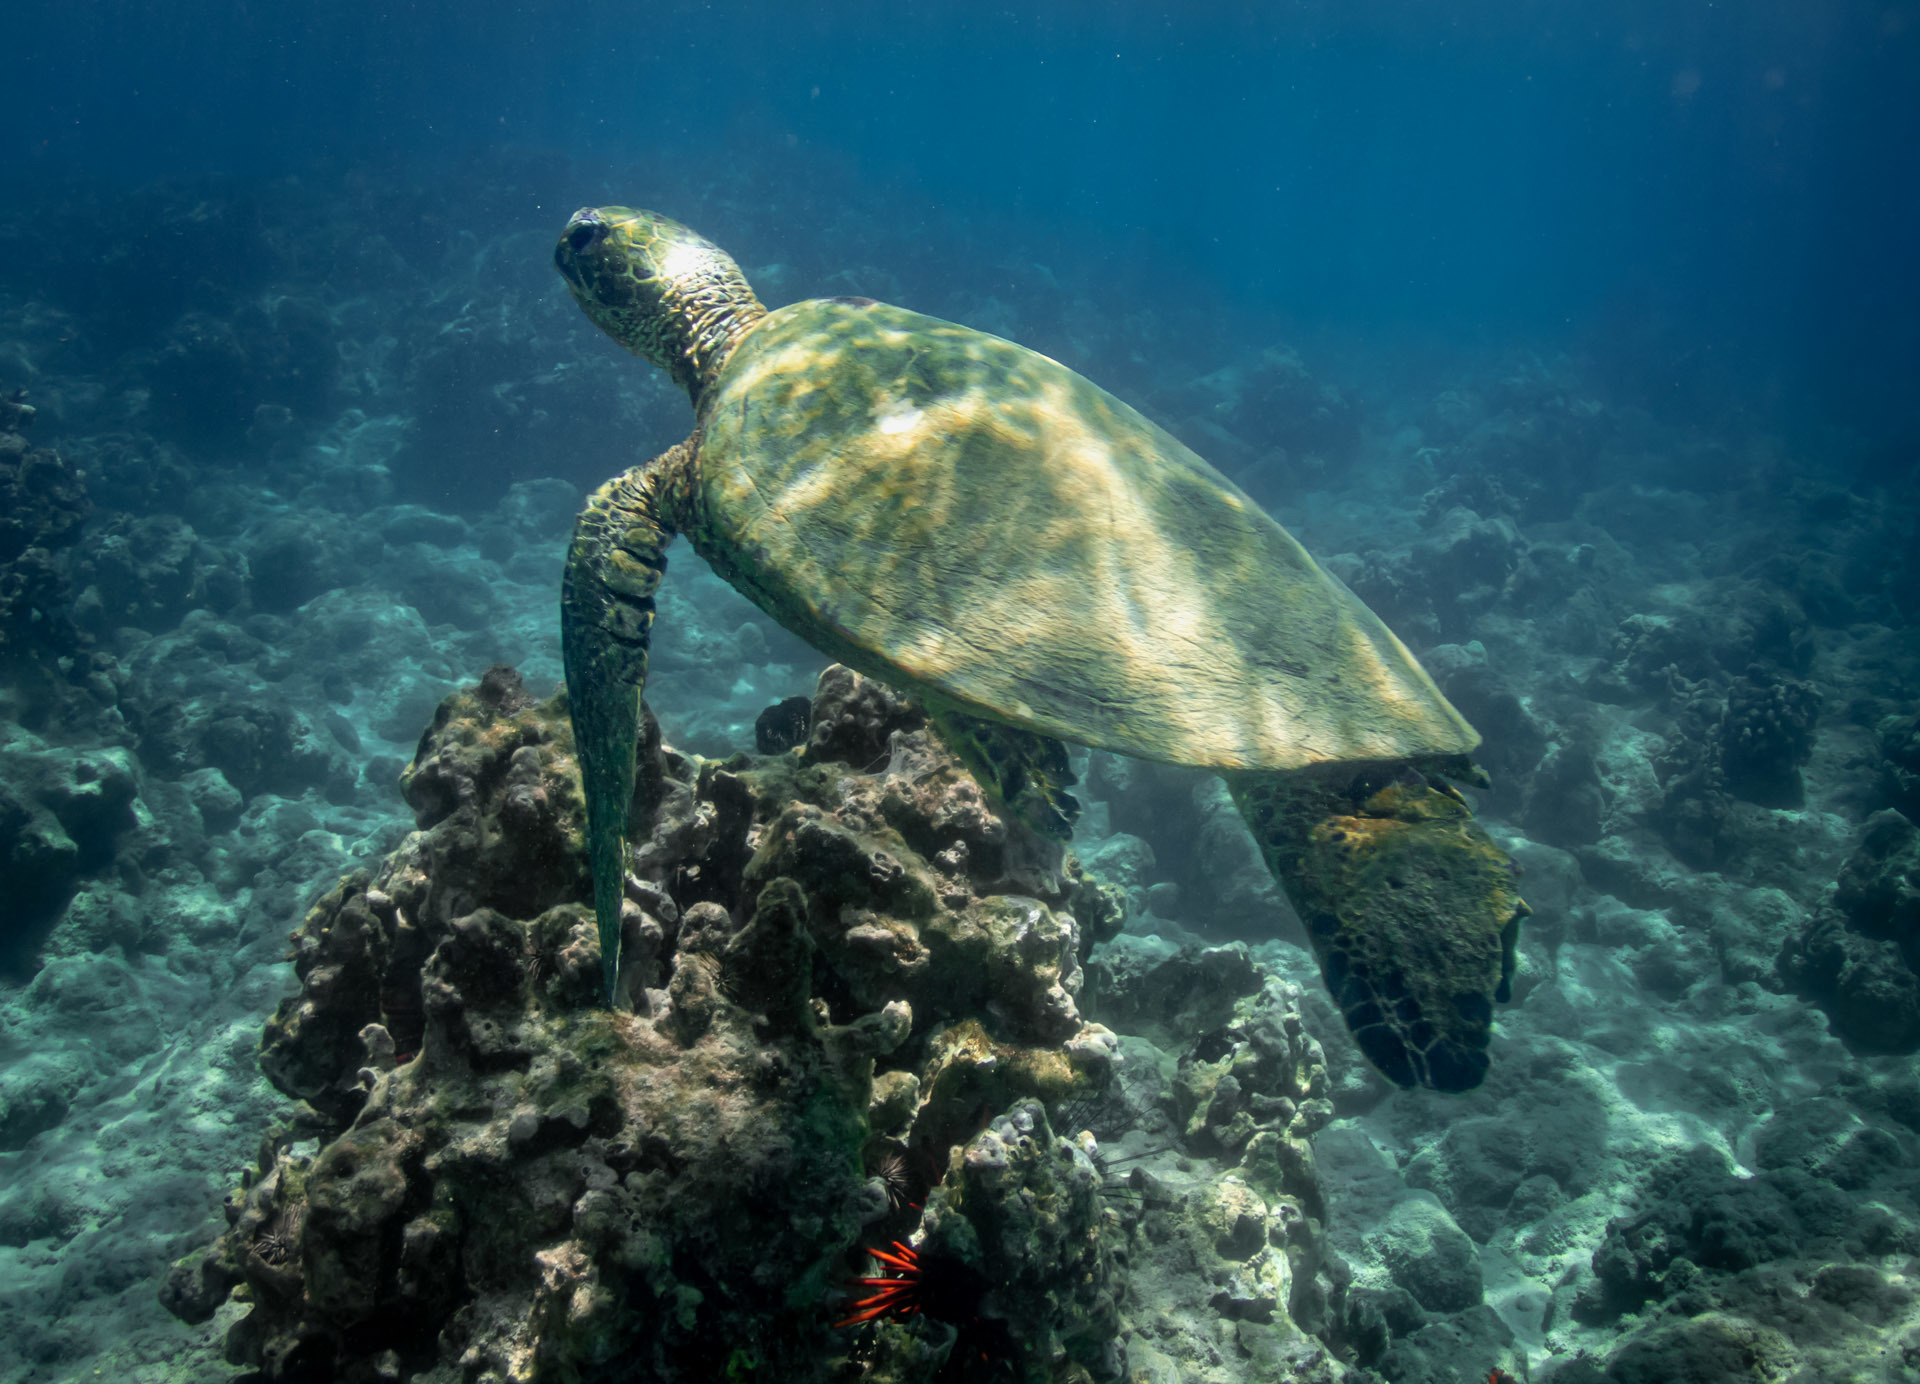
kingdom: Animalia
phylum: Chordata
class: Testudines
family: Cheloniidae
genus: Chelonia
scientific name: Chelonia mydas
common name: Green turtle
